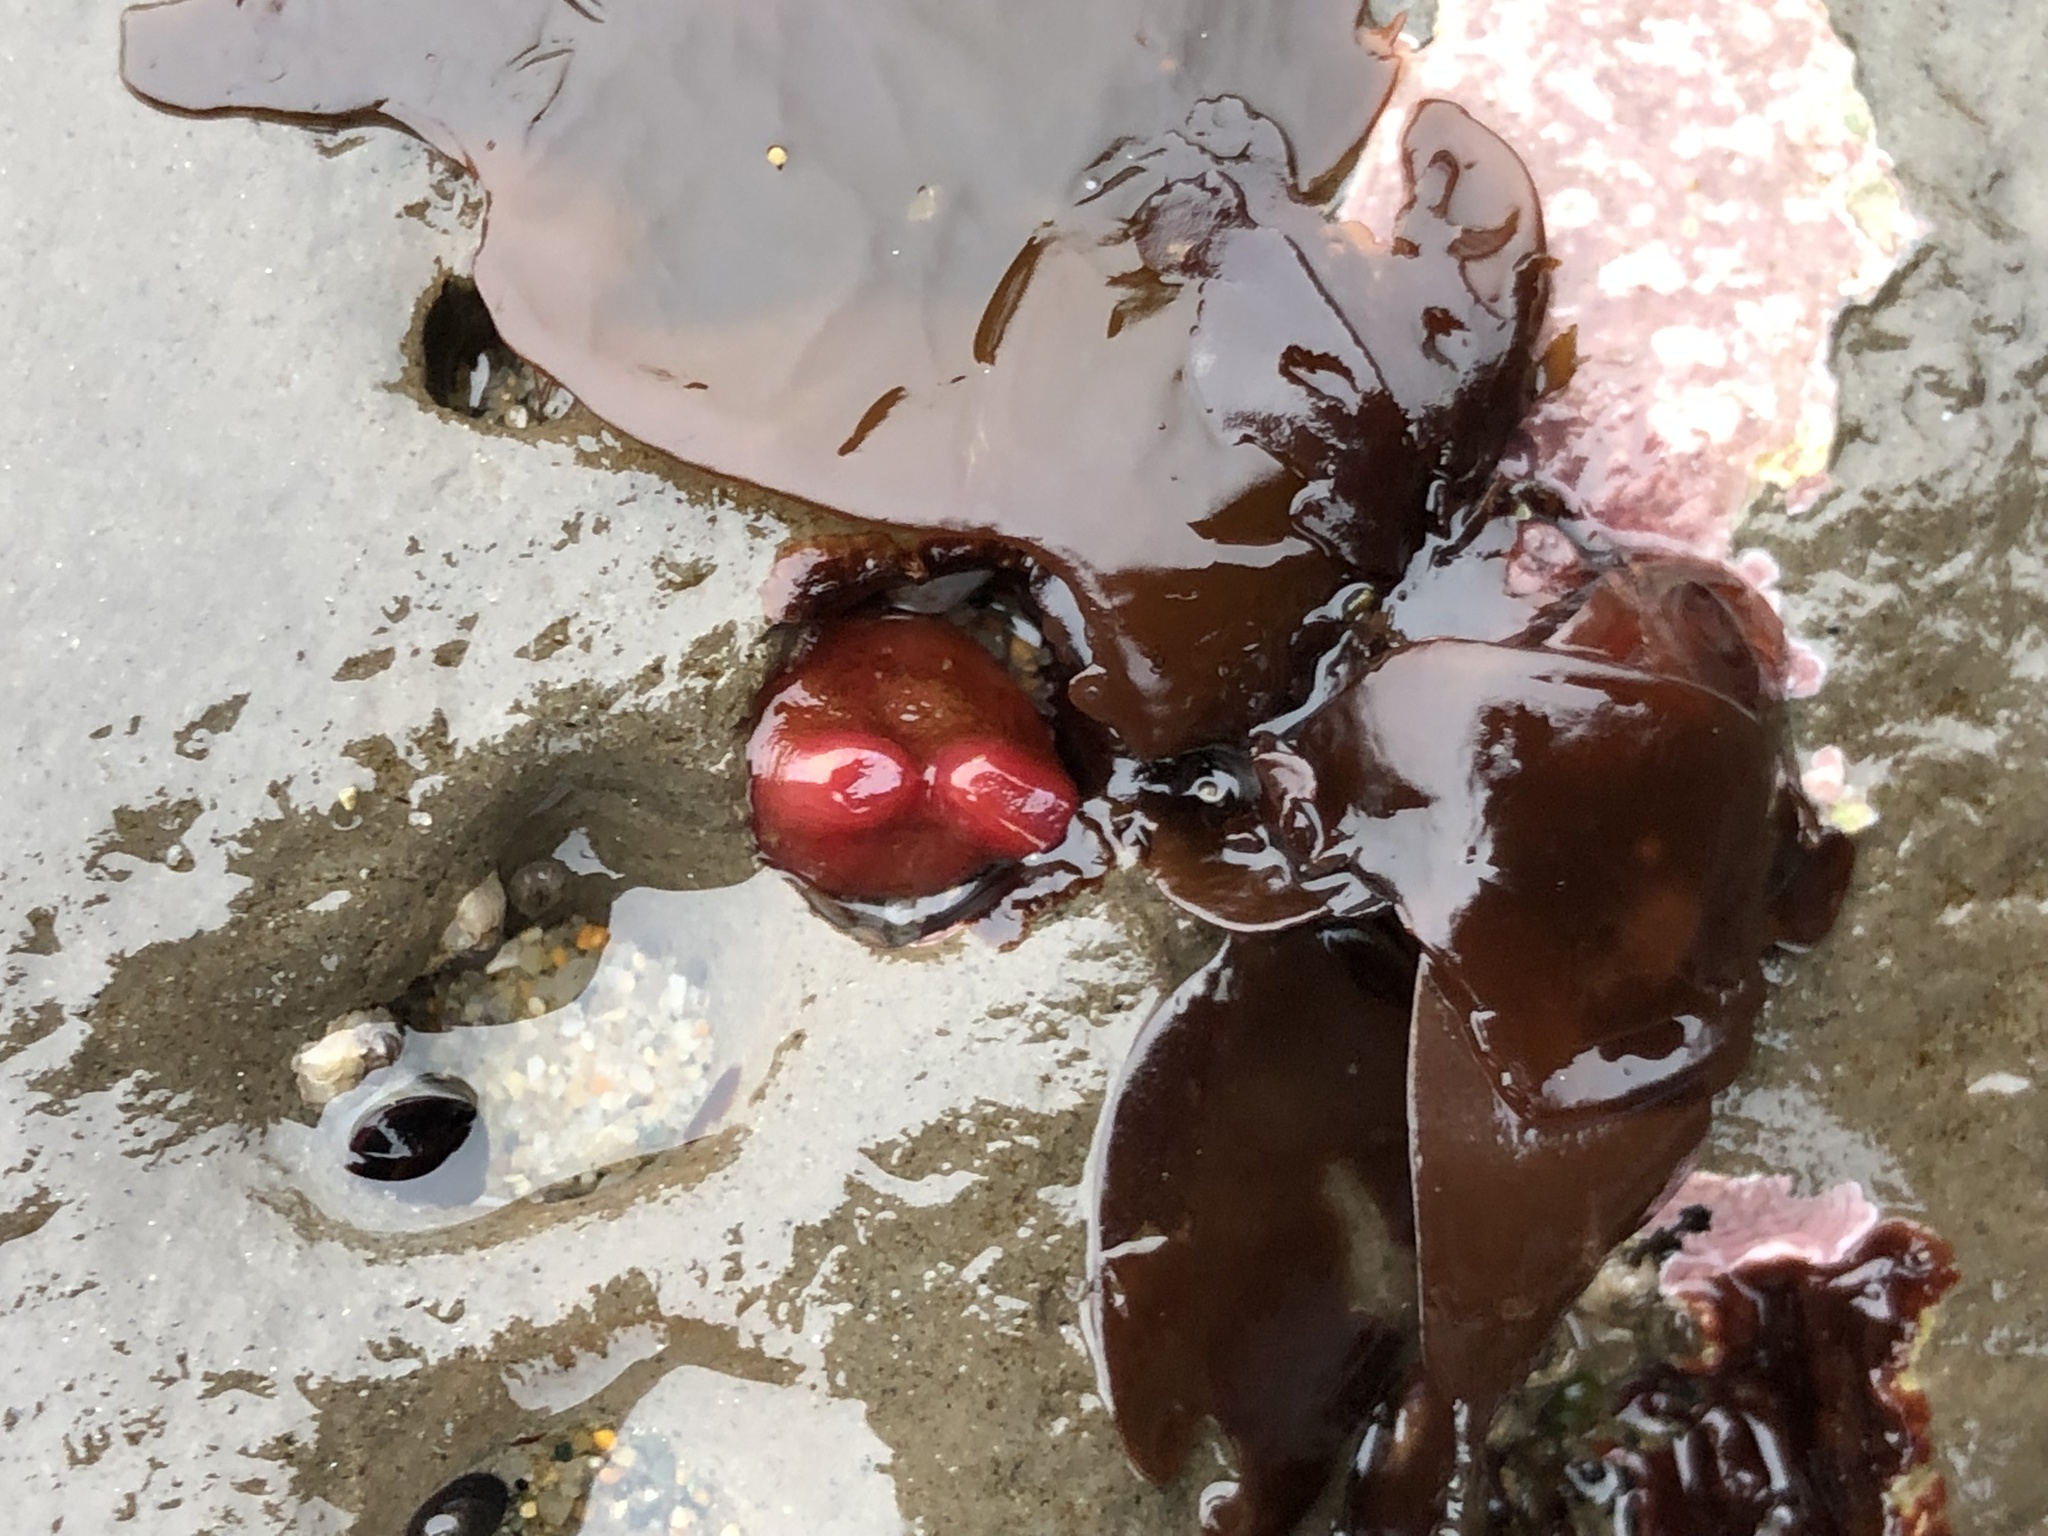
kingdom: Animalia
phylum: Mollusca
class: Bivalvia
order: Adapedonta
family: Hiatellidae
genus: Hiatella
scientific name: Hiatella arctica
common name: Arctic hiatella
